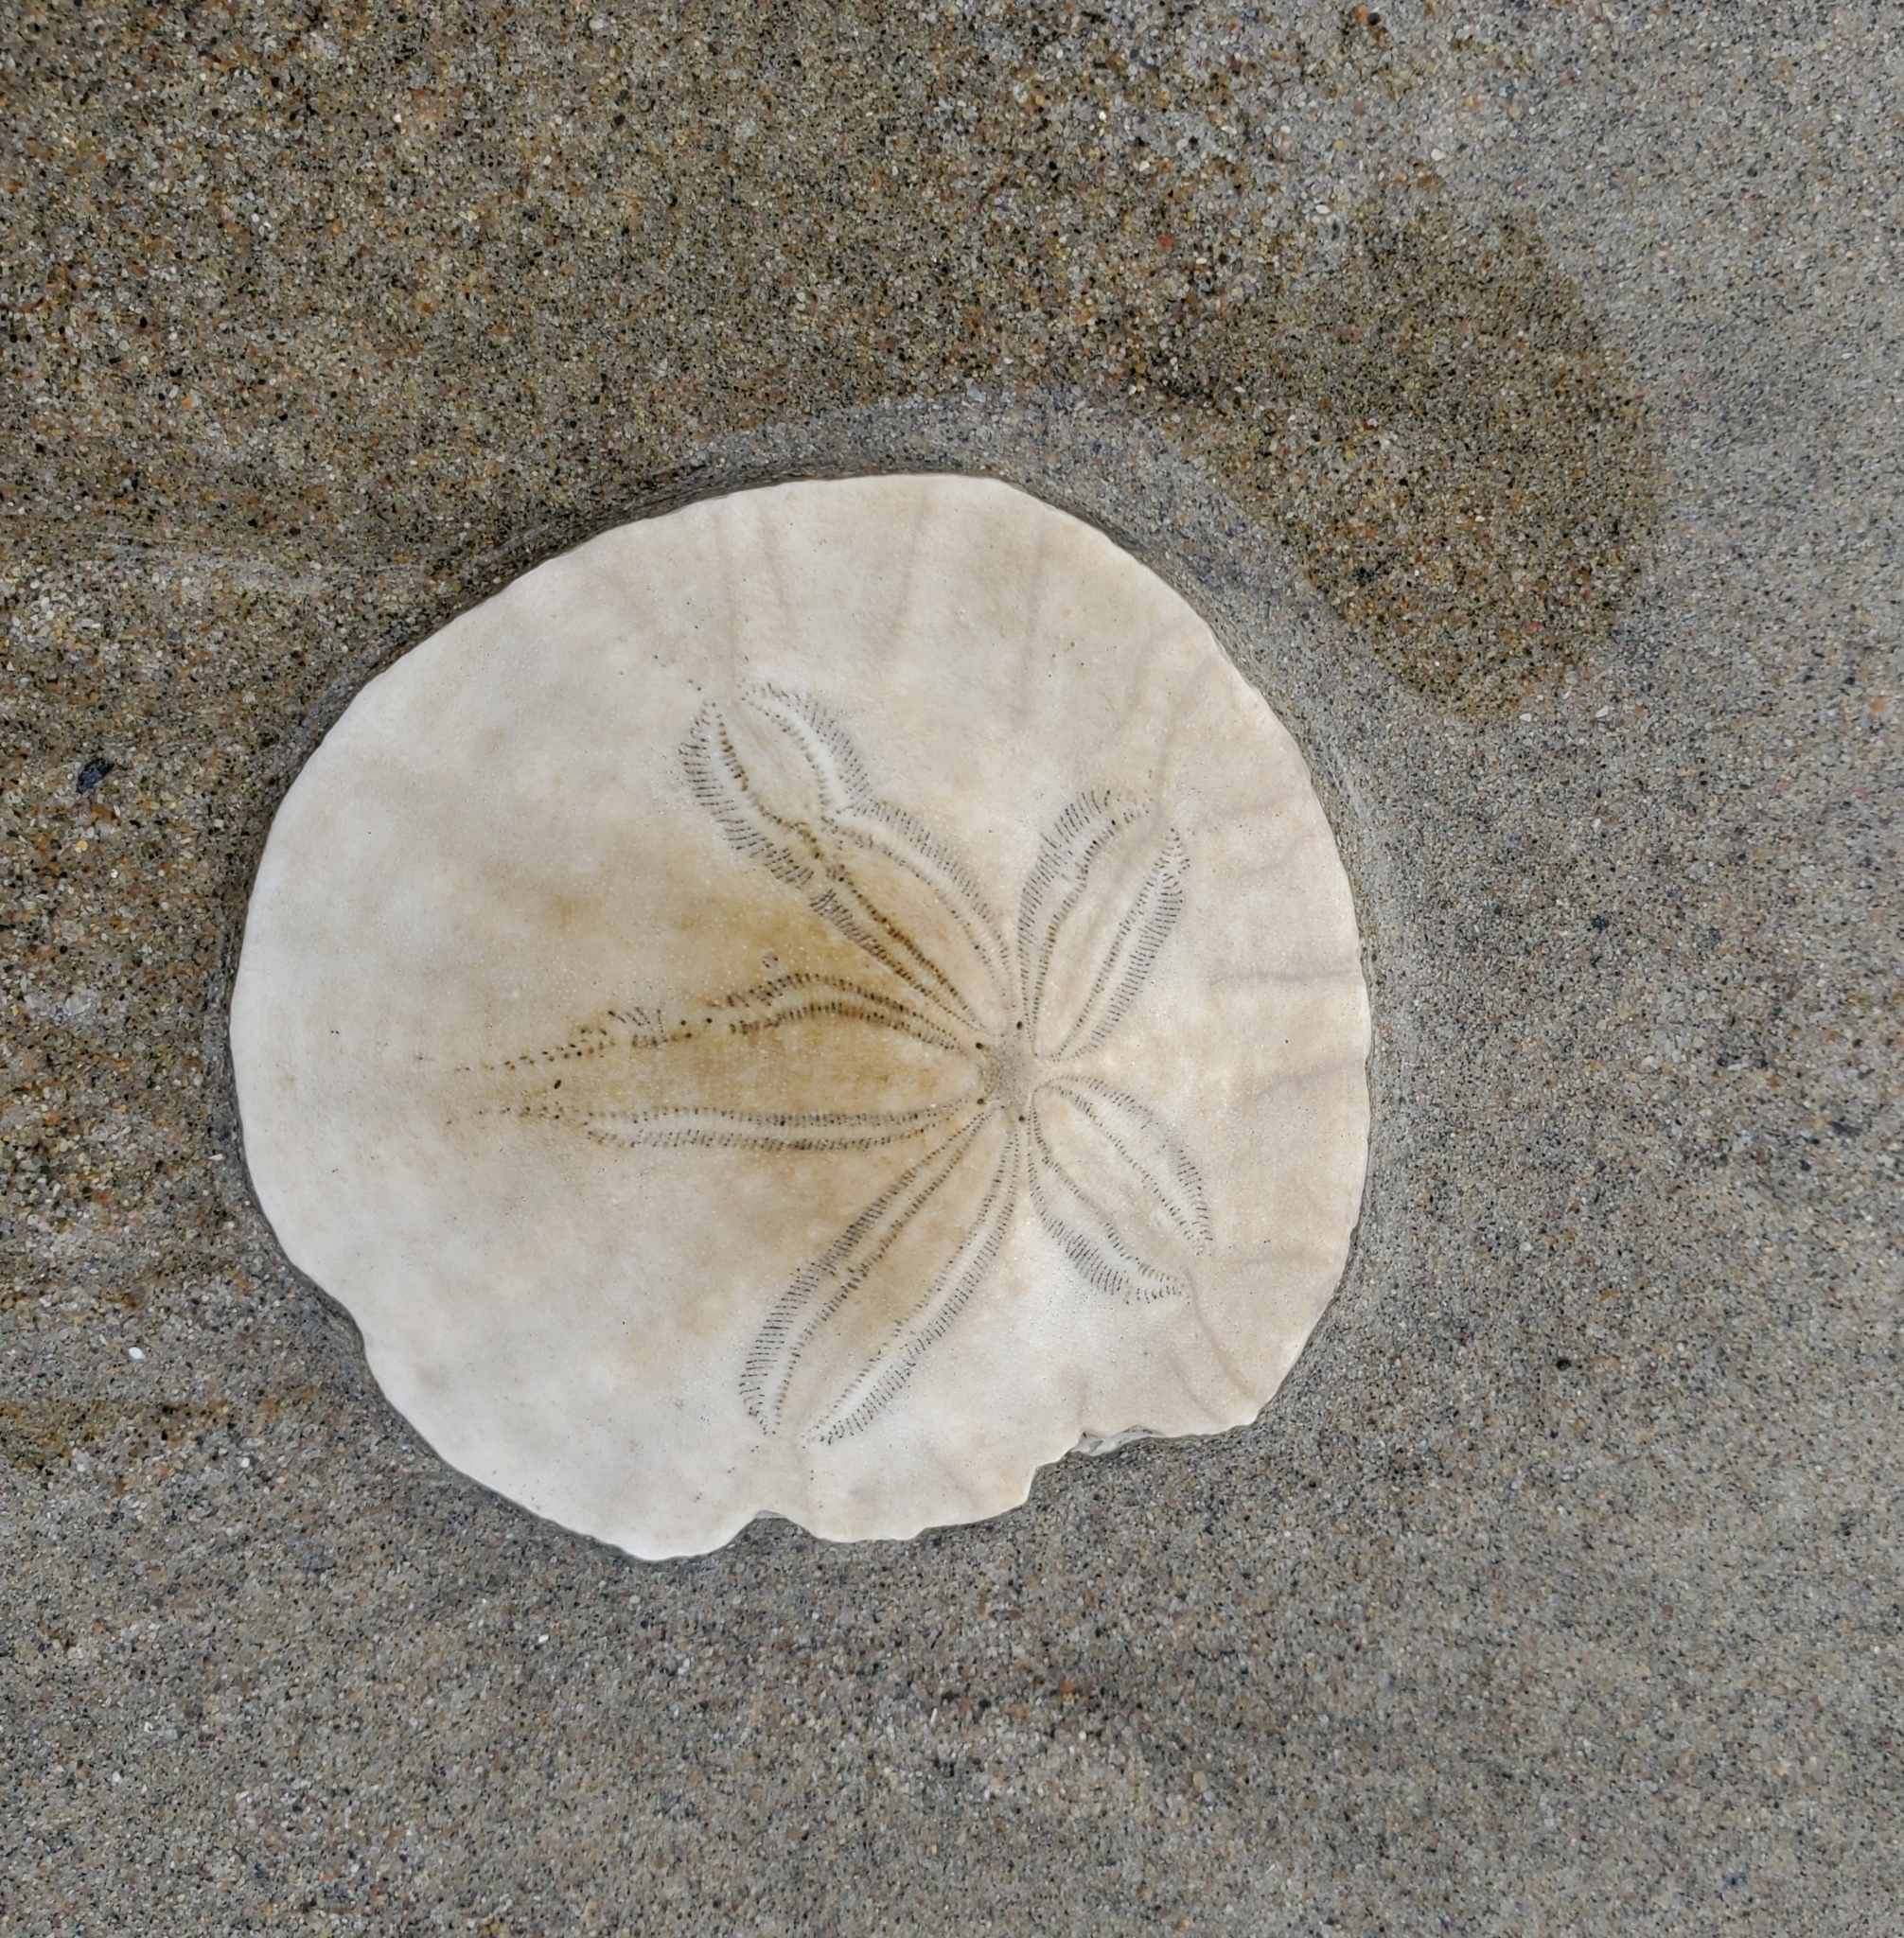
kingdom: Animalia
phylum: Echinodermata
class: Echinoidea
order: Echinolampadacea
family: Dendrasteridae
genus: Dendraster
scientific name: Dendraster excentricus
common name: Eccentric sand dollar sea urchin
